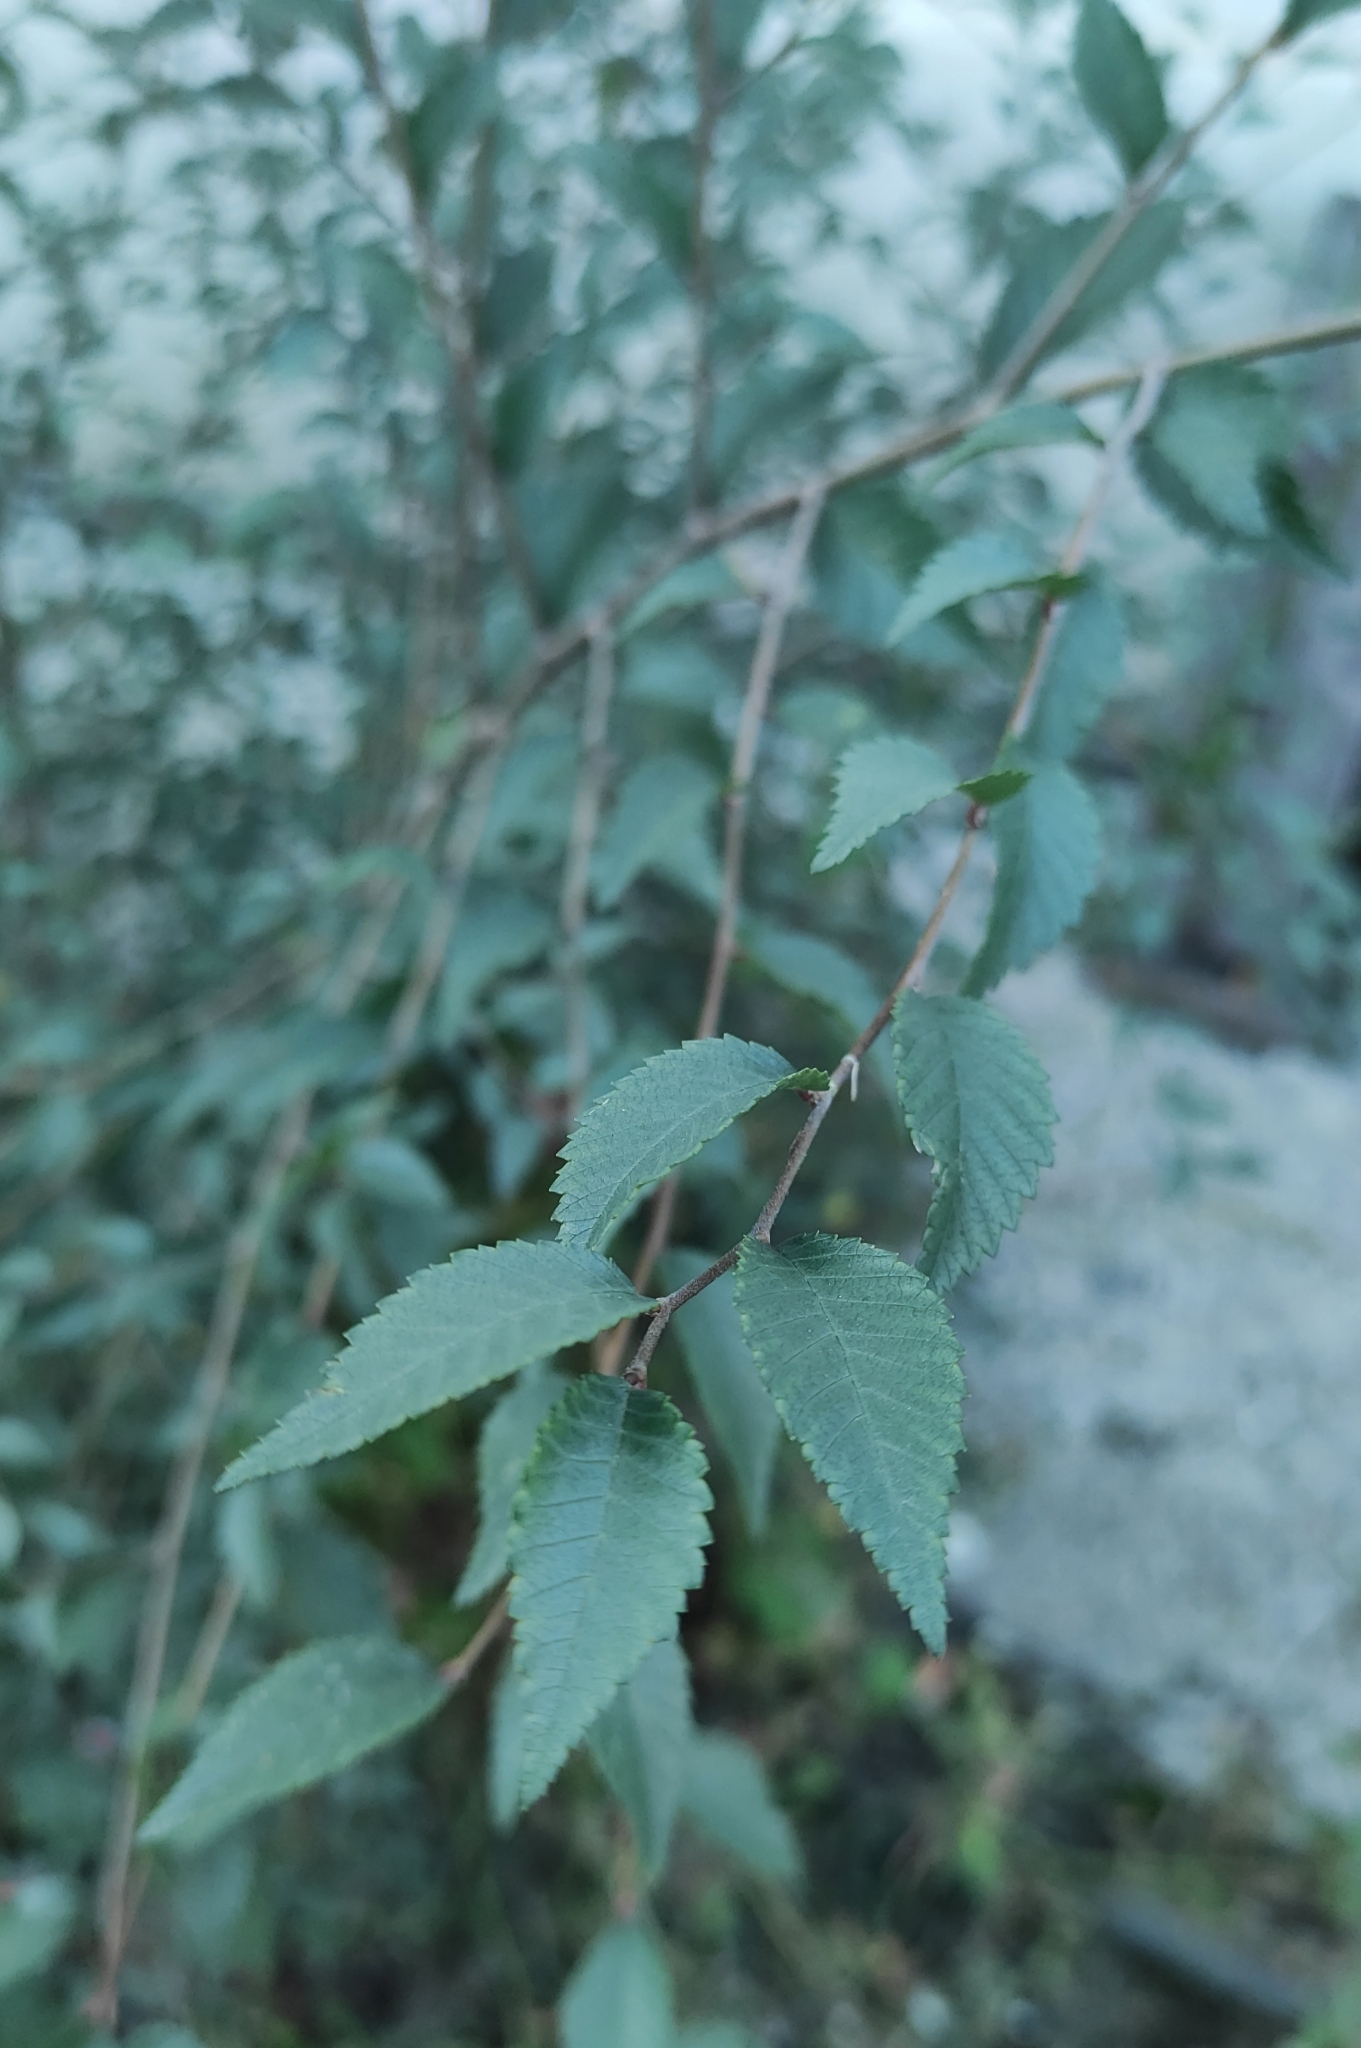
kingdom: Plantae
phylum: Tracheophyta
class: Magnoliopsida
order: Rosales
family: Ulmaceae
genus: Ulmus
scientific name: Ulmus pumila
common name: Siberian elm
